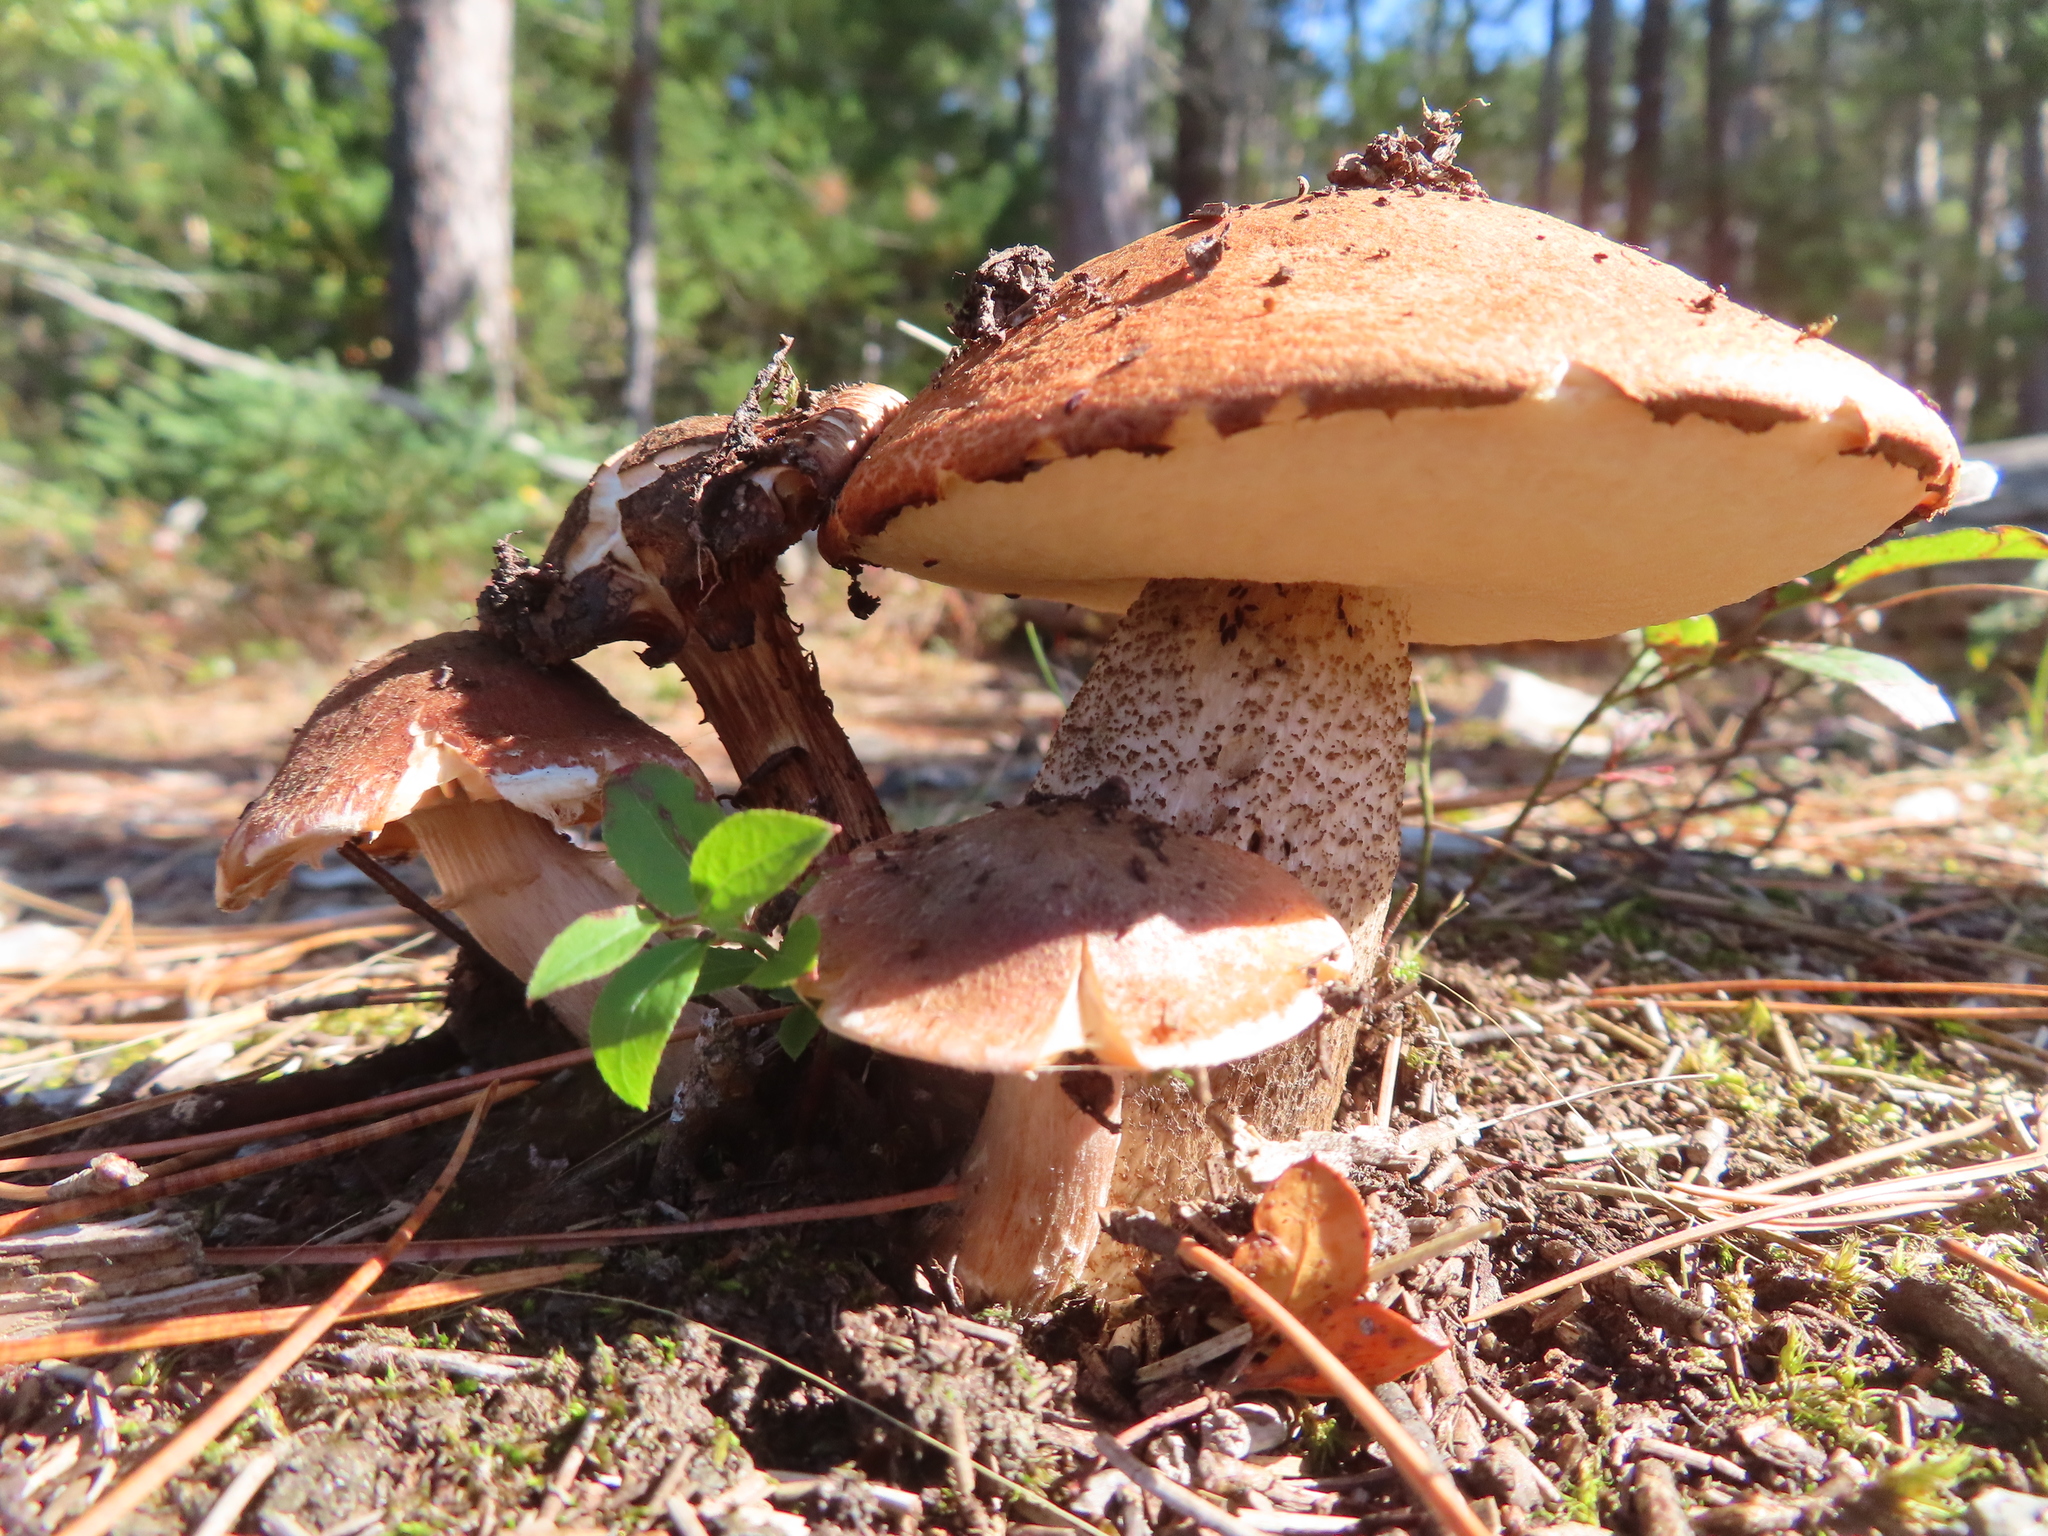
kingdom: Fungi
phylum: Basidiomycota
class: Agaricomycetes
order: Boletales
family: Boletaceae
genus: Leccinum
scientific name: Leccinum aurantiacum
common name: Orange bolete
